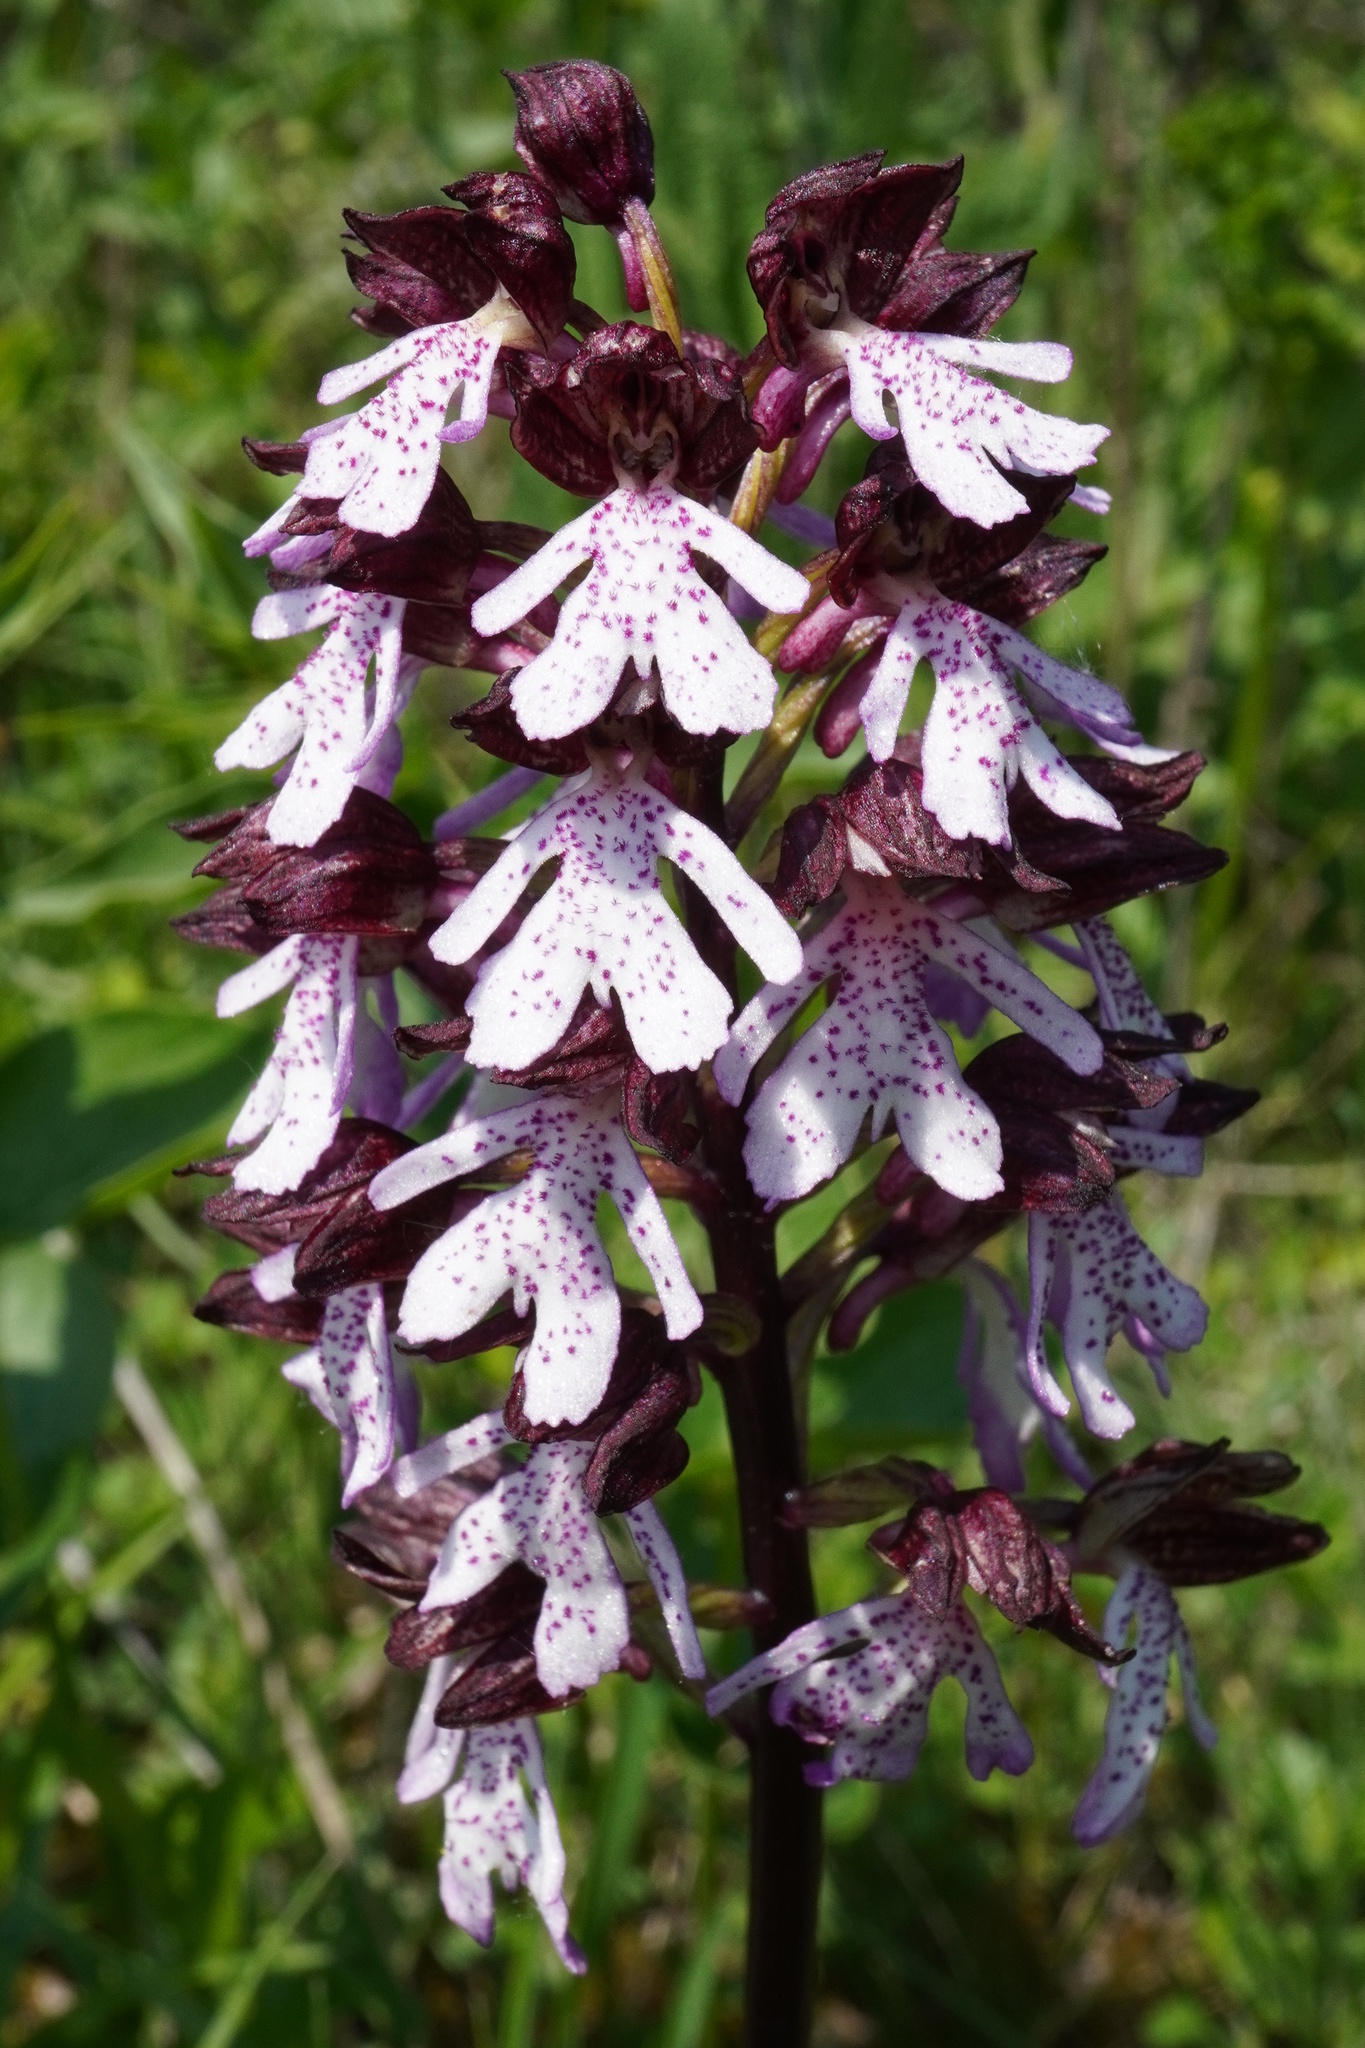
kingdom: Plantae
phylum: Tracheophyta
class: Liliopsida
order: Asparagales
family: Orchidaceae
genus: Orchis
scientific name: Orchis purpurea
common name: Lady orchid
